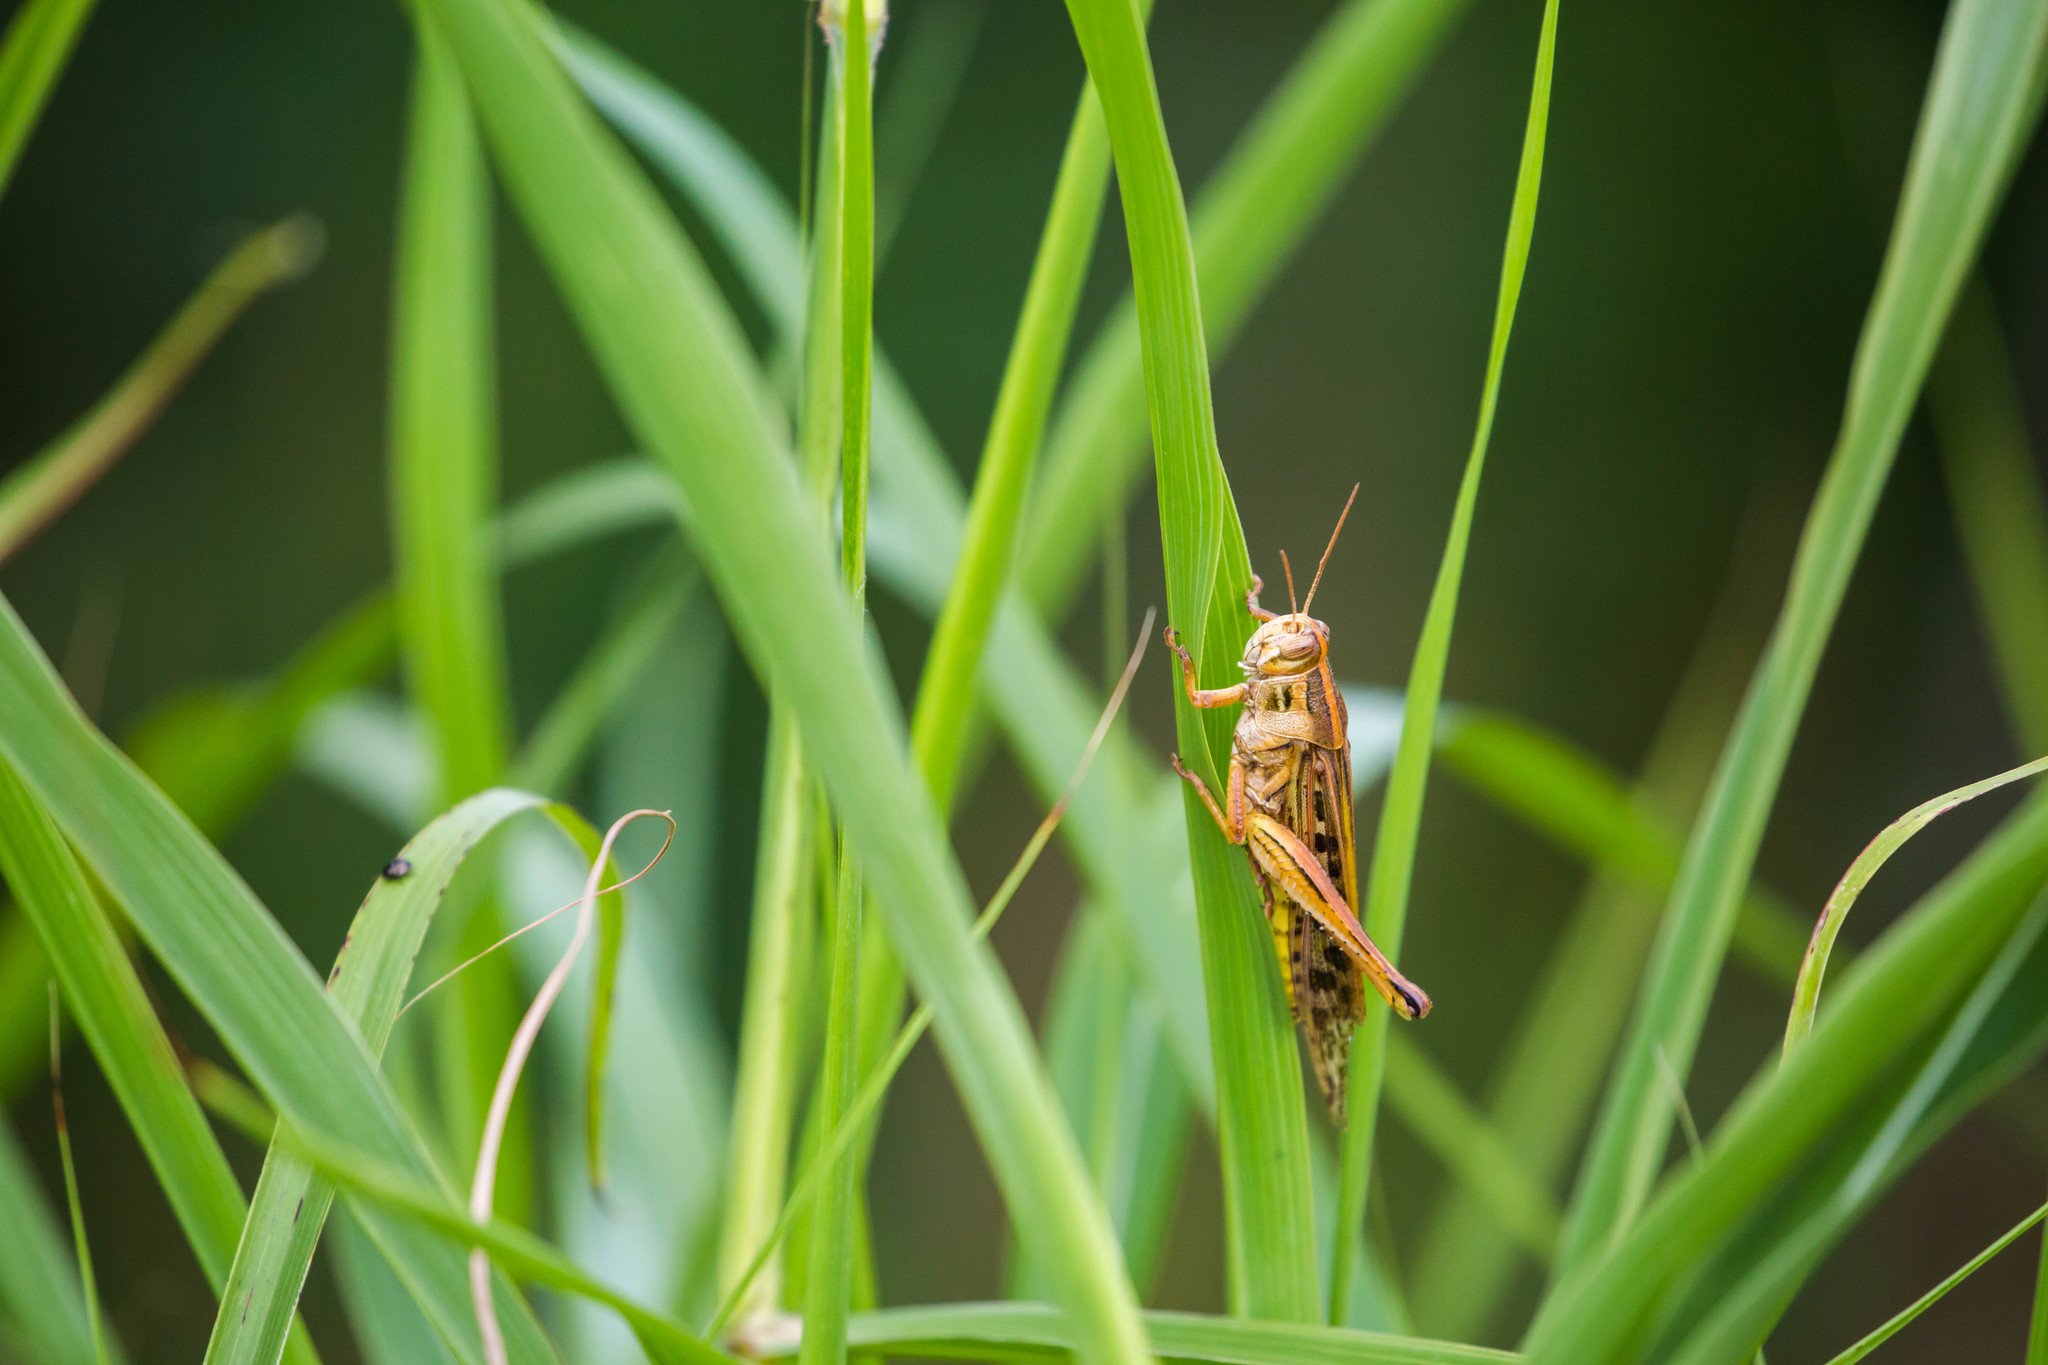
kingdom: Animalia
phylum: Arthropoda
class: Insecta
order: Orthoptera
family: Acrididae
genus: Schistocerca
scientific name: Schistocerca americana
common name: American bird locust
